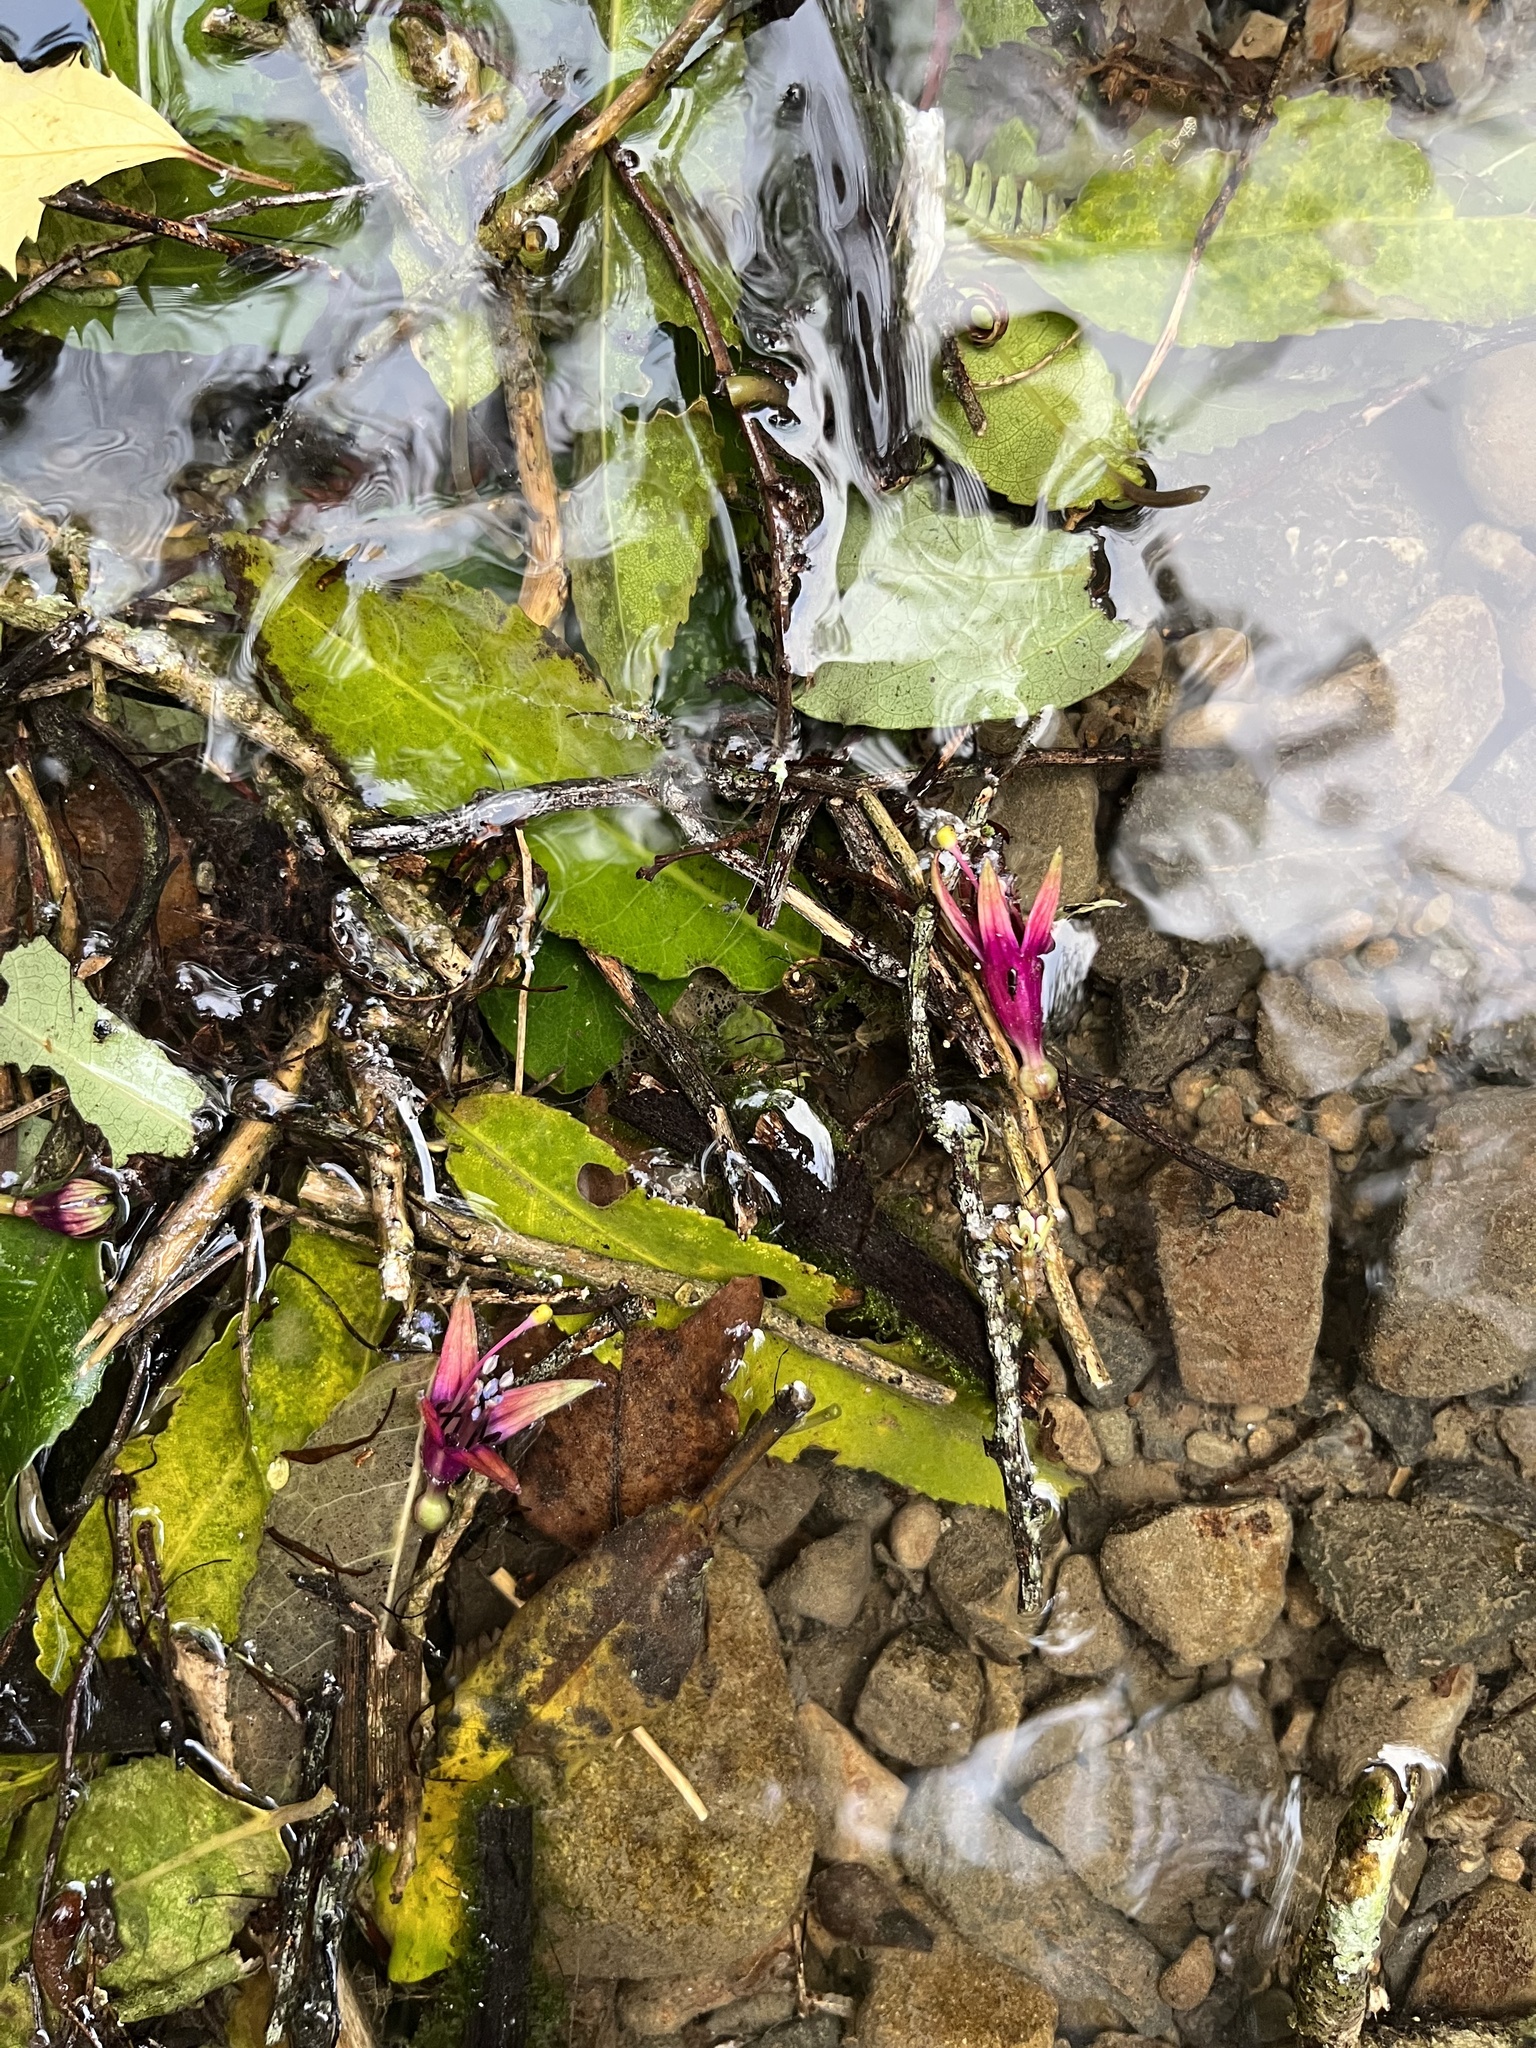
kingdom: Plantae
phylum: Tracheophyta
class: Magnoliopsida
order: Myrtales
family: Onagraceae
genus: Fuchsia
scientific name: Fuchsia excorticata
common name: Tree fuchsia
